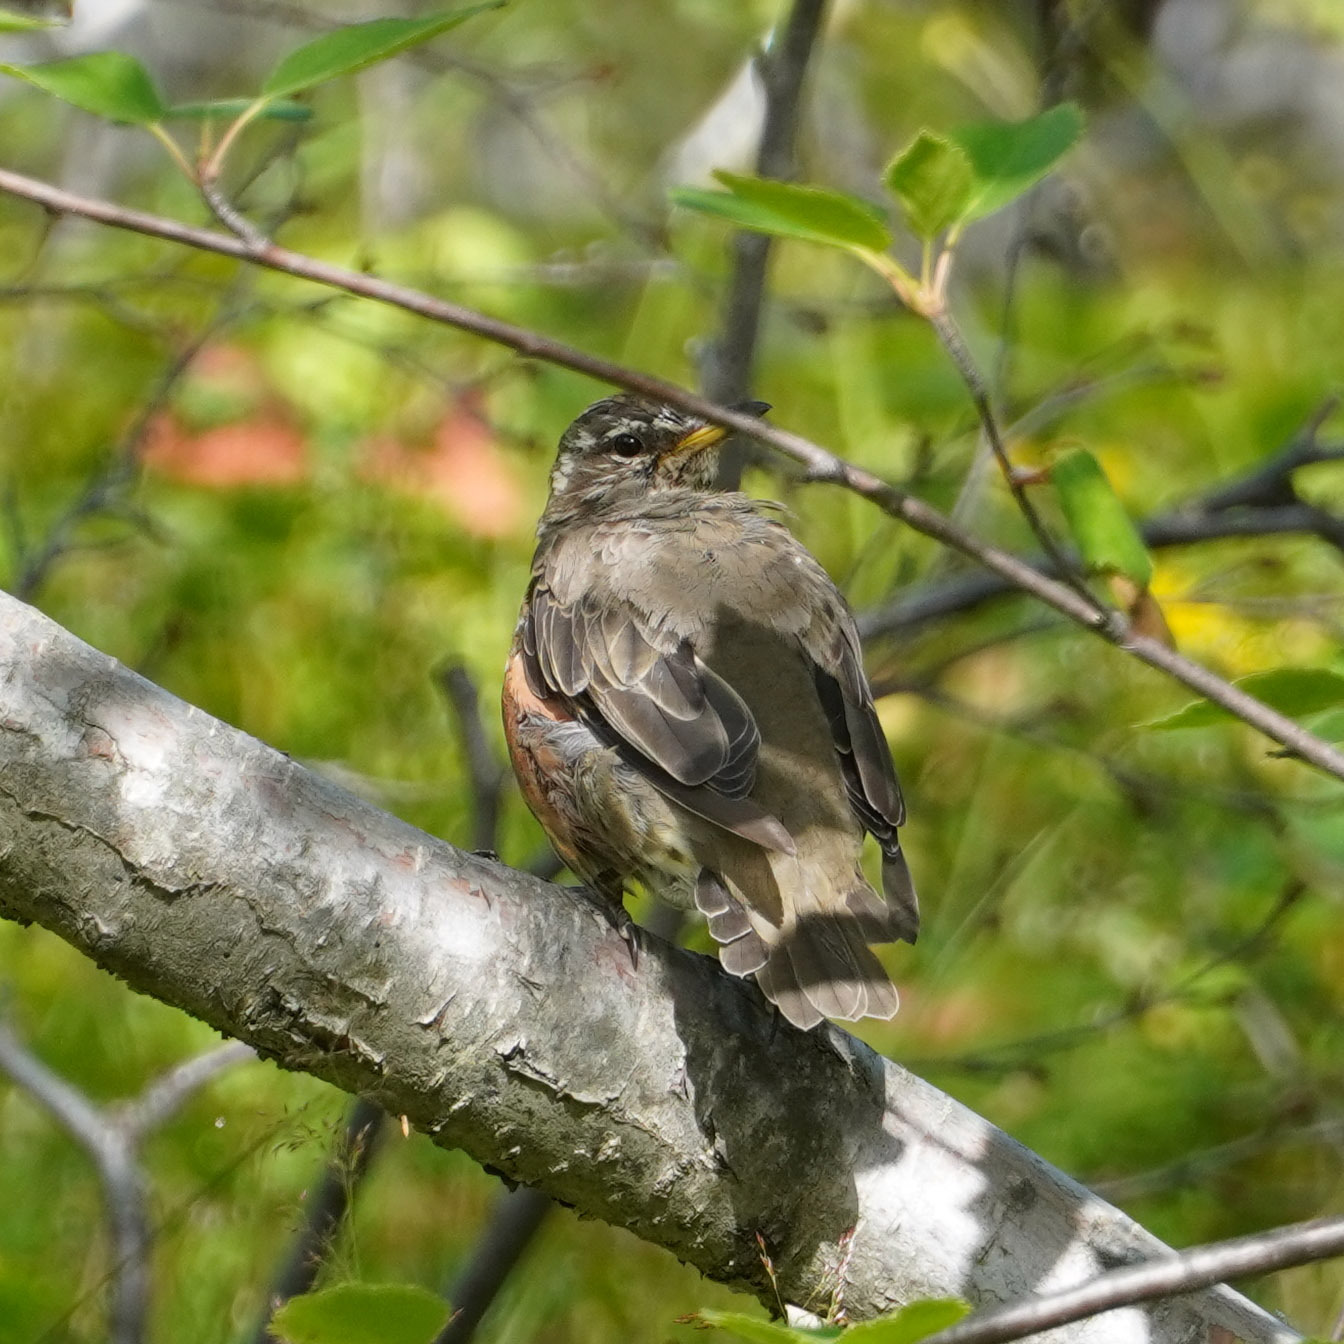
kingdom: Animalia
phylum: Chordata
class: Aves
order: Passeriformes
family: Turdidae
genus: Turdus
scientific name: Turdus iliacus
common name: Redwing
